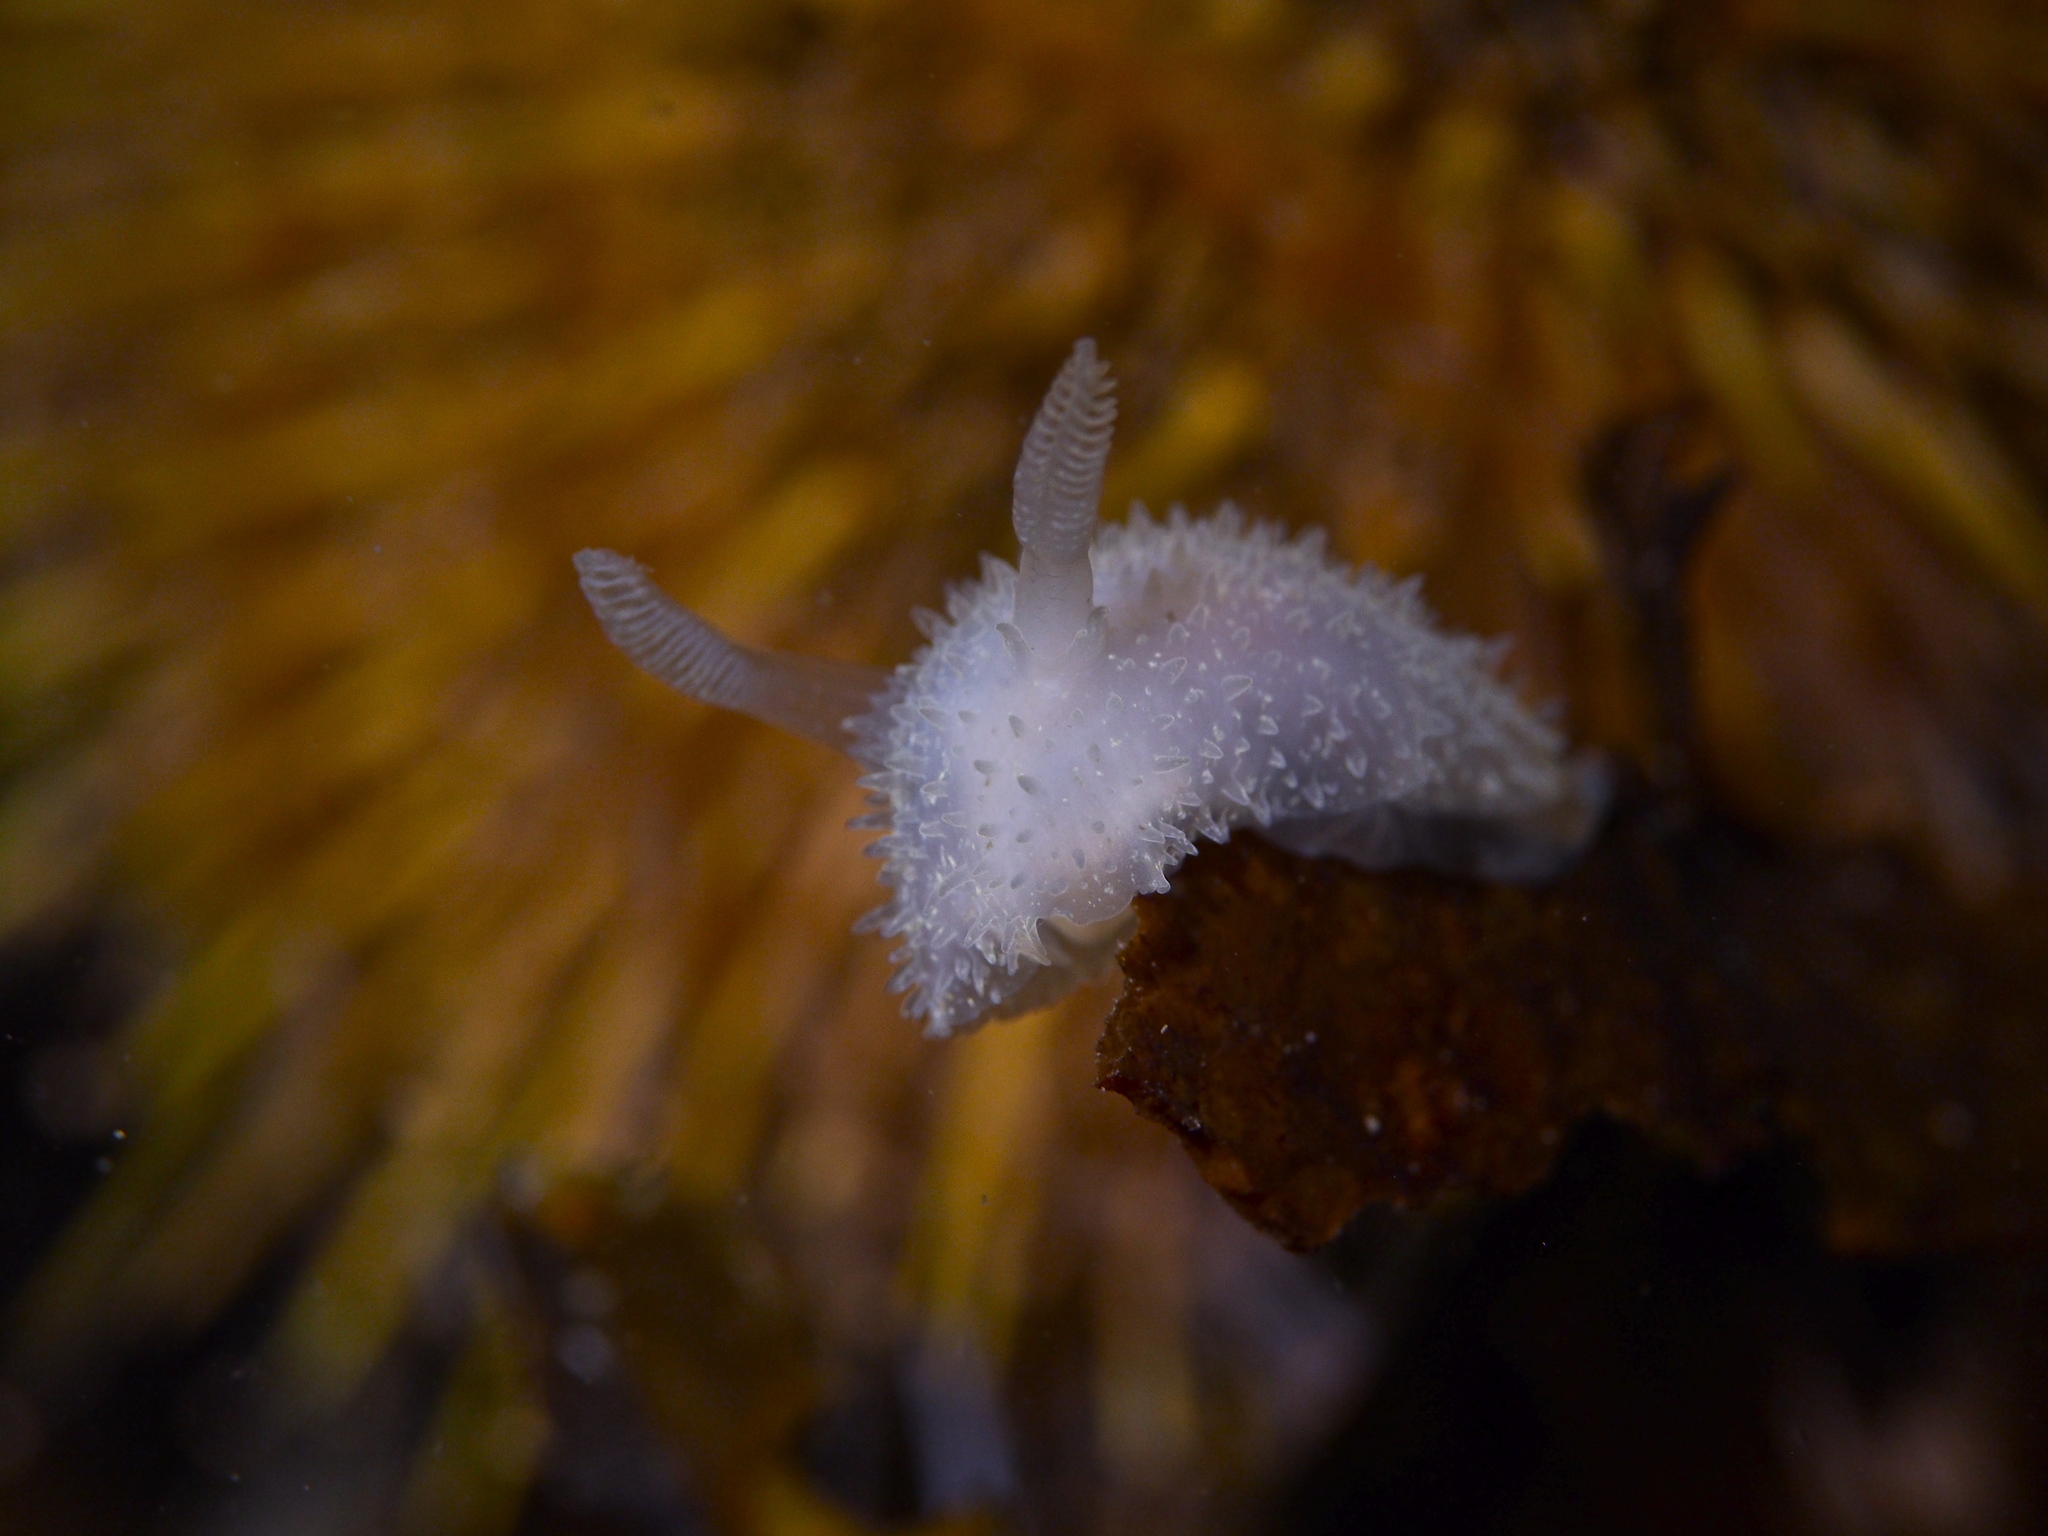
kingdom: Animalia
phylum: Mollusca
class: Gastropoda
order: Nudibranchia
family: Onchidorididae
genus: Acanthodoris
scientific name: Acanthodoris pilosa
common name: Hairy spiny doris
